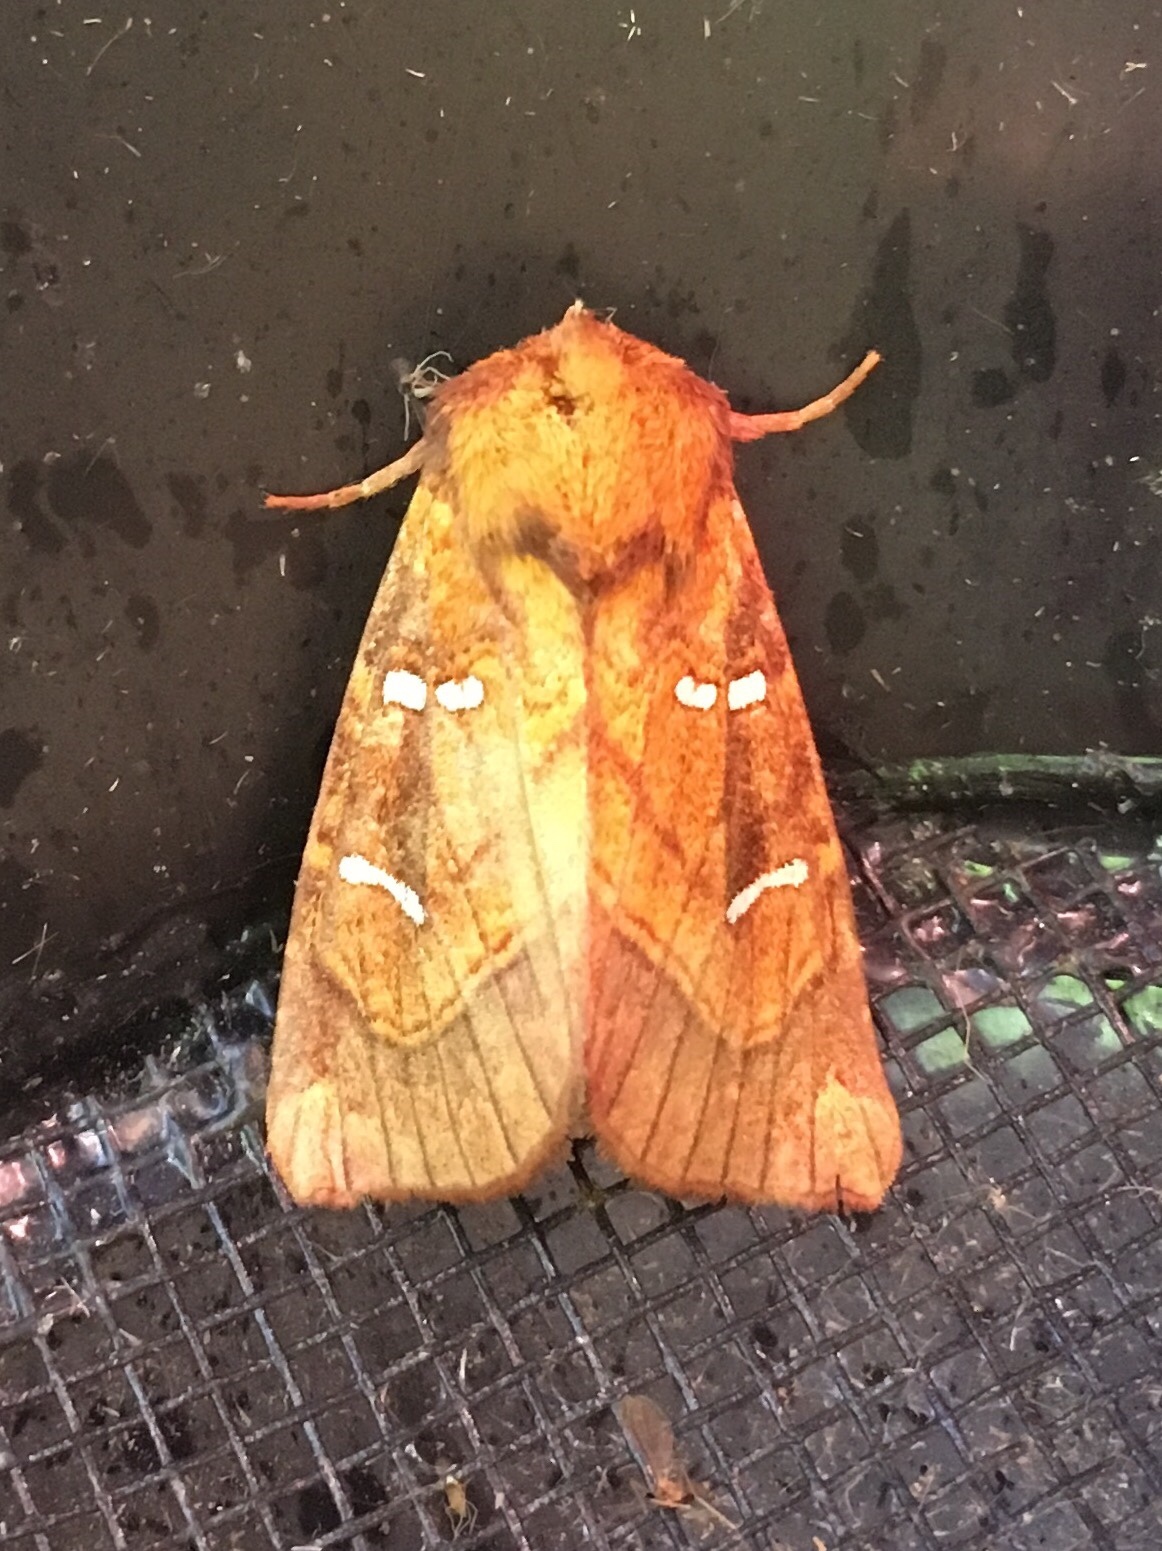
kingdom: Animalia
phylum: Arthropoda
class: Insecta
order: Lepidoptera
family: Noctuidae
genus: Papaipema
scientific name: Papaipema speciosissima
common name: Osmunda borer moth
